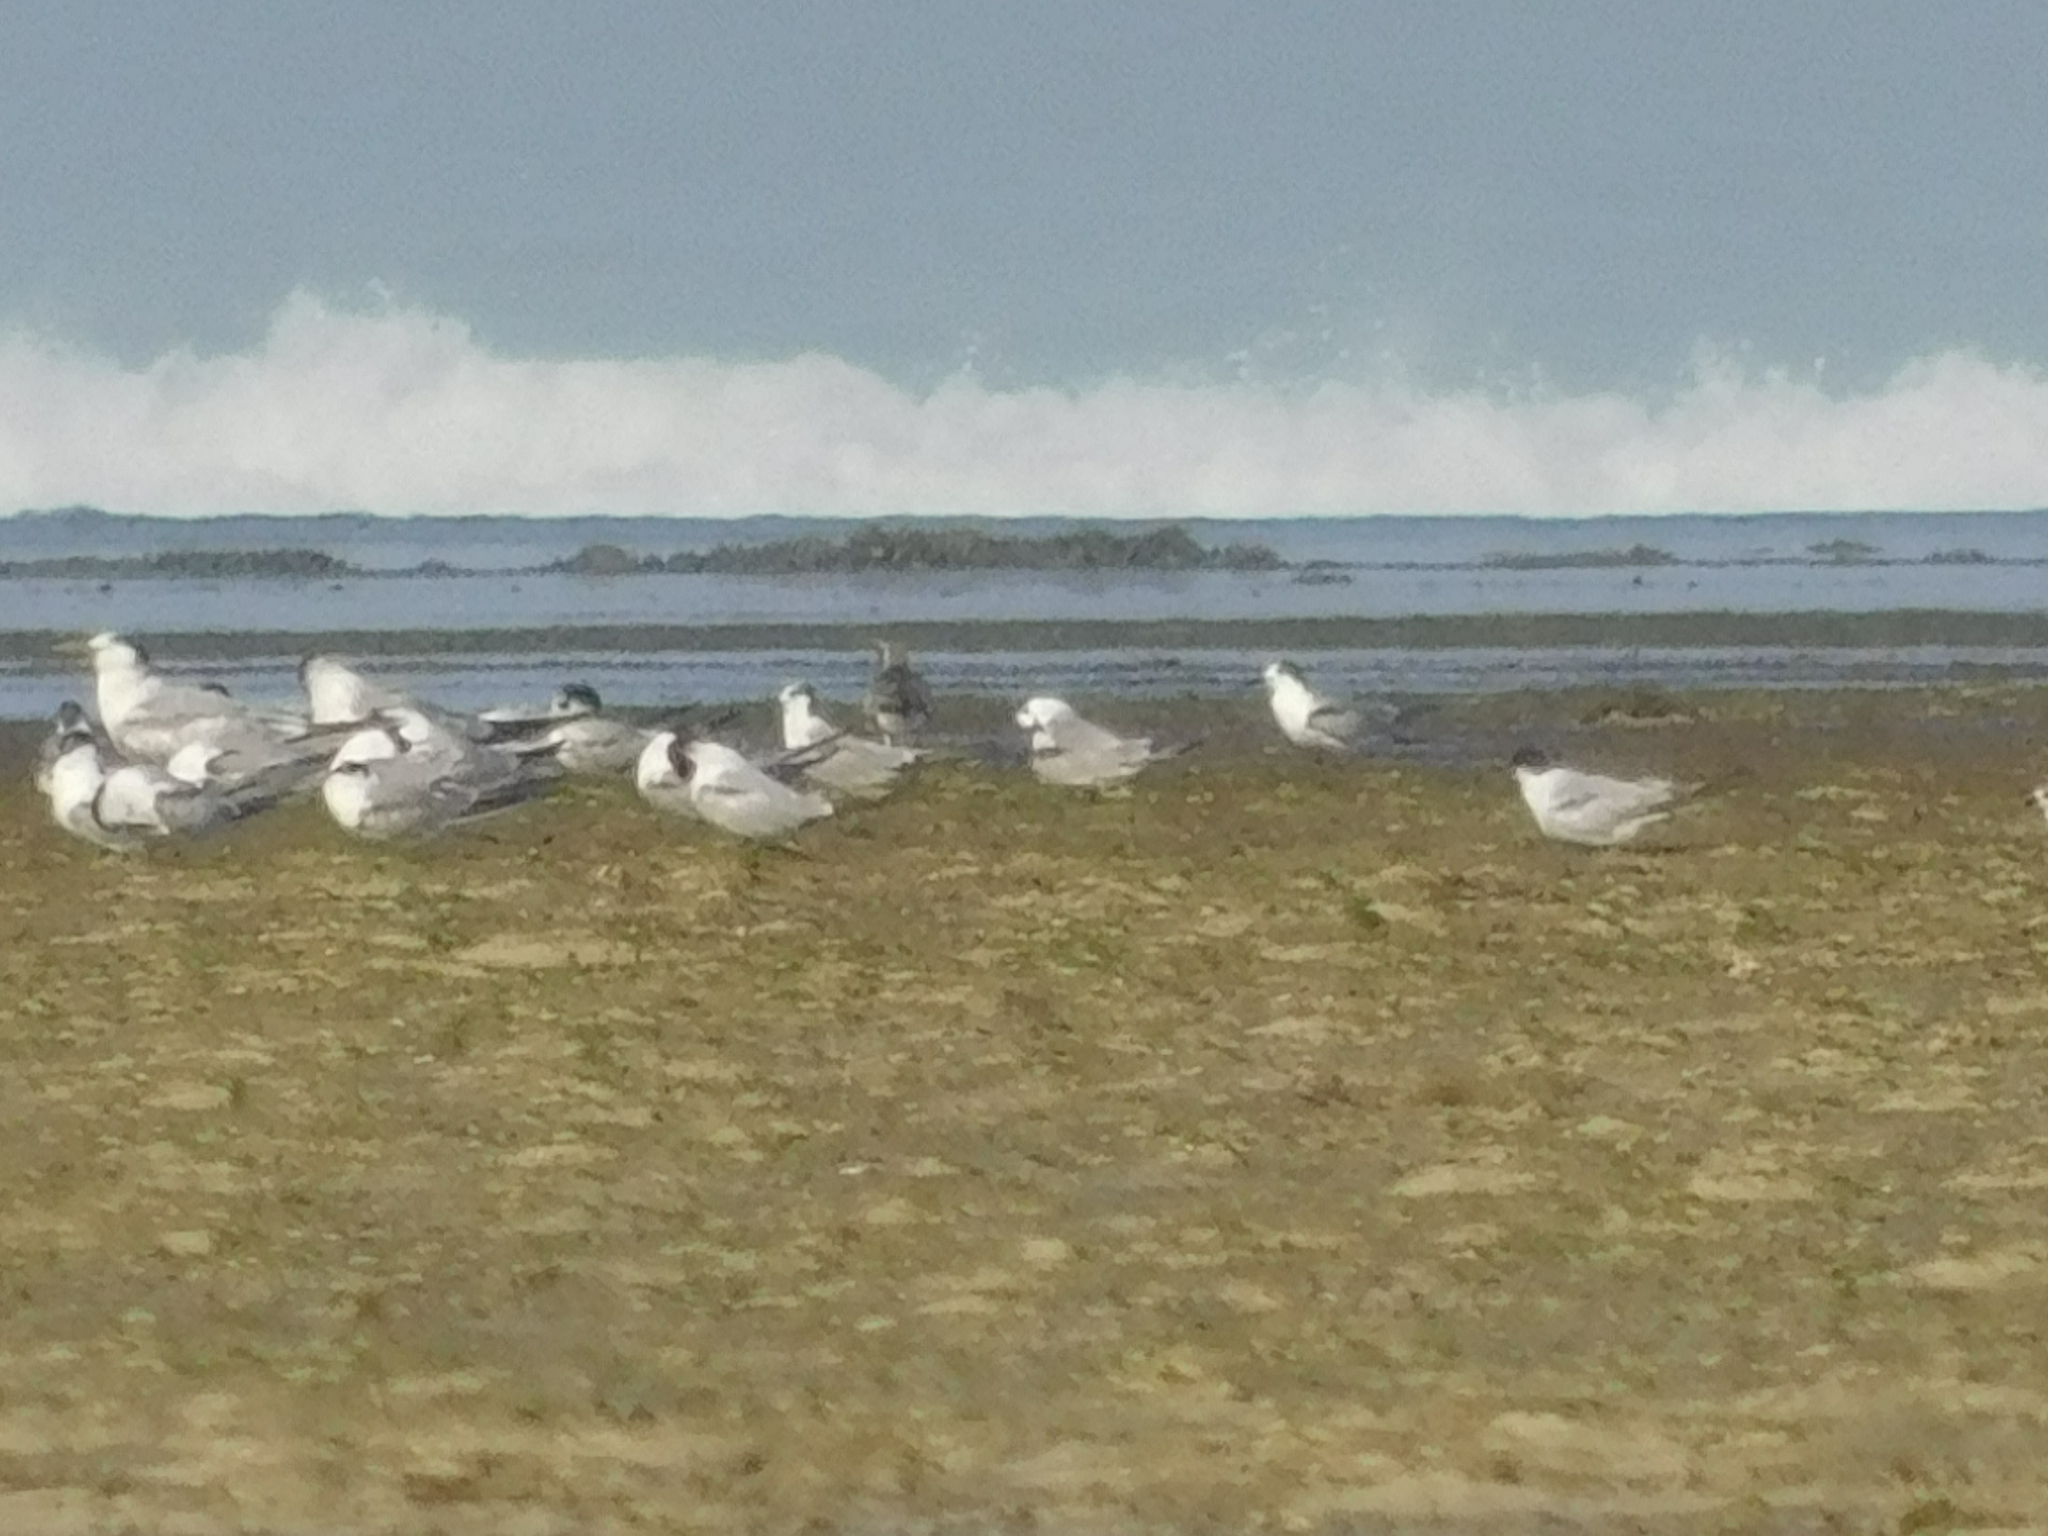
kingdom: Animalia
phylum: Chordata
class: Aves
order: Charadriiformes
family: Laridae
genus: Thalasseus
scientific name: Thalasseus bergii
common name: Greater crested tern
